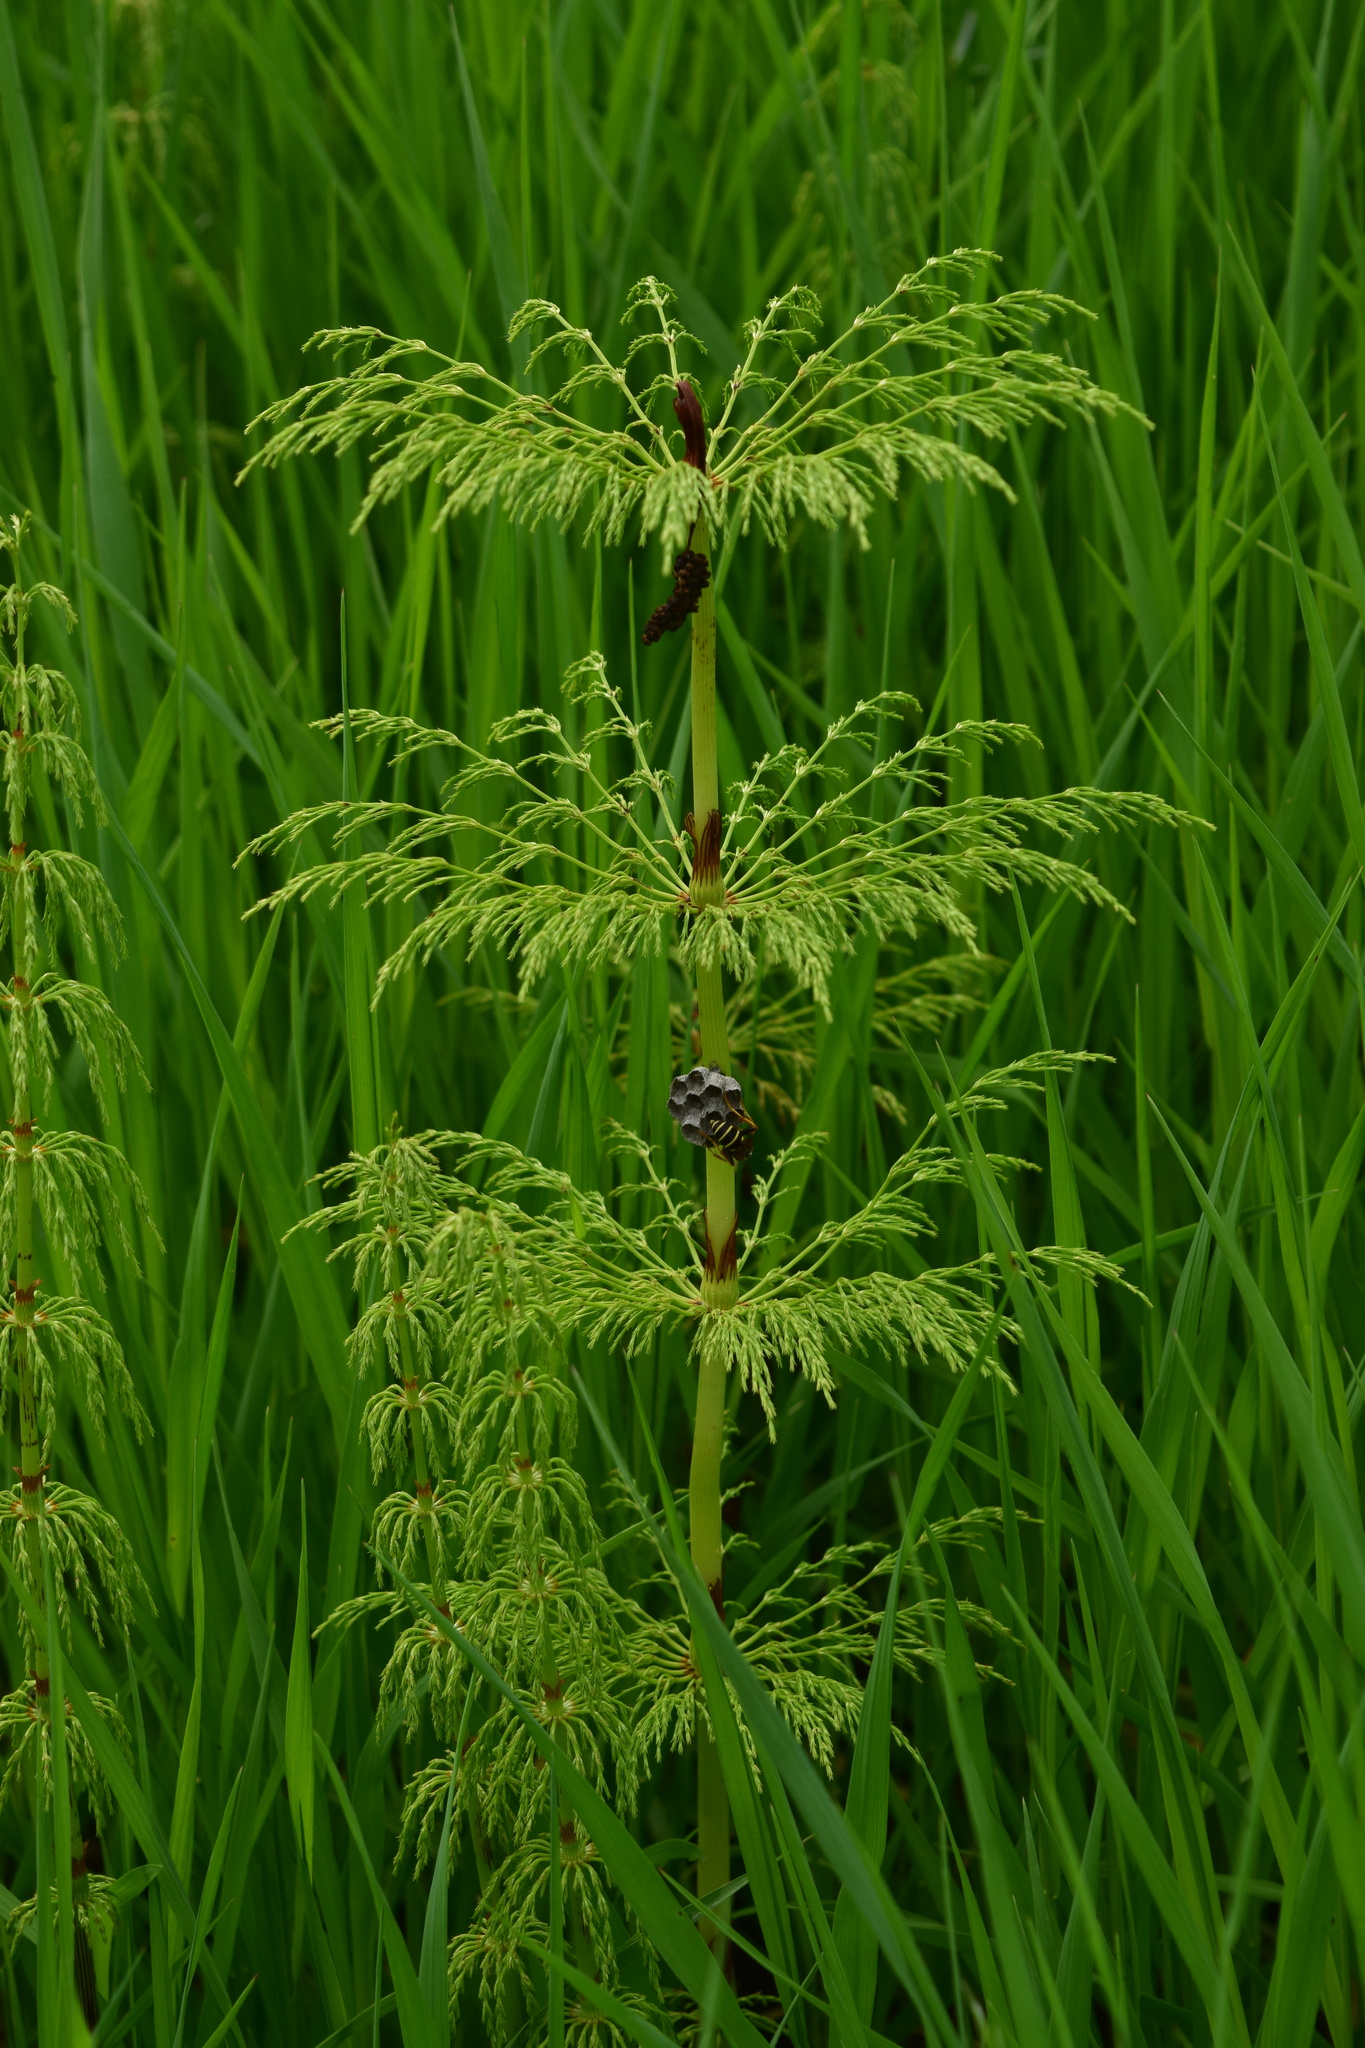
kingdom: Plantae
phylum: Tracheophyta
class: Polypodiopsida
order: Equisetales
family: Equisetaceae
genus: Equisetum
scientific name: Equisetum sylvaticum
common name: Wood horsetail
